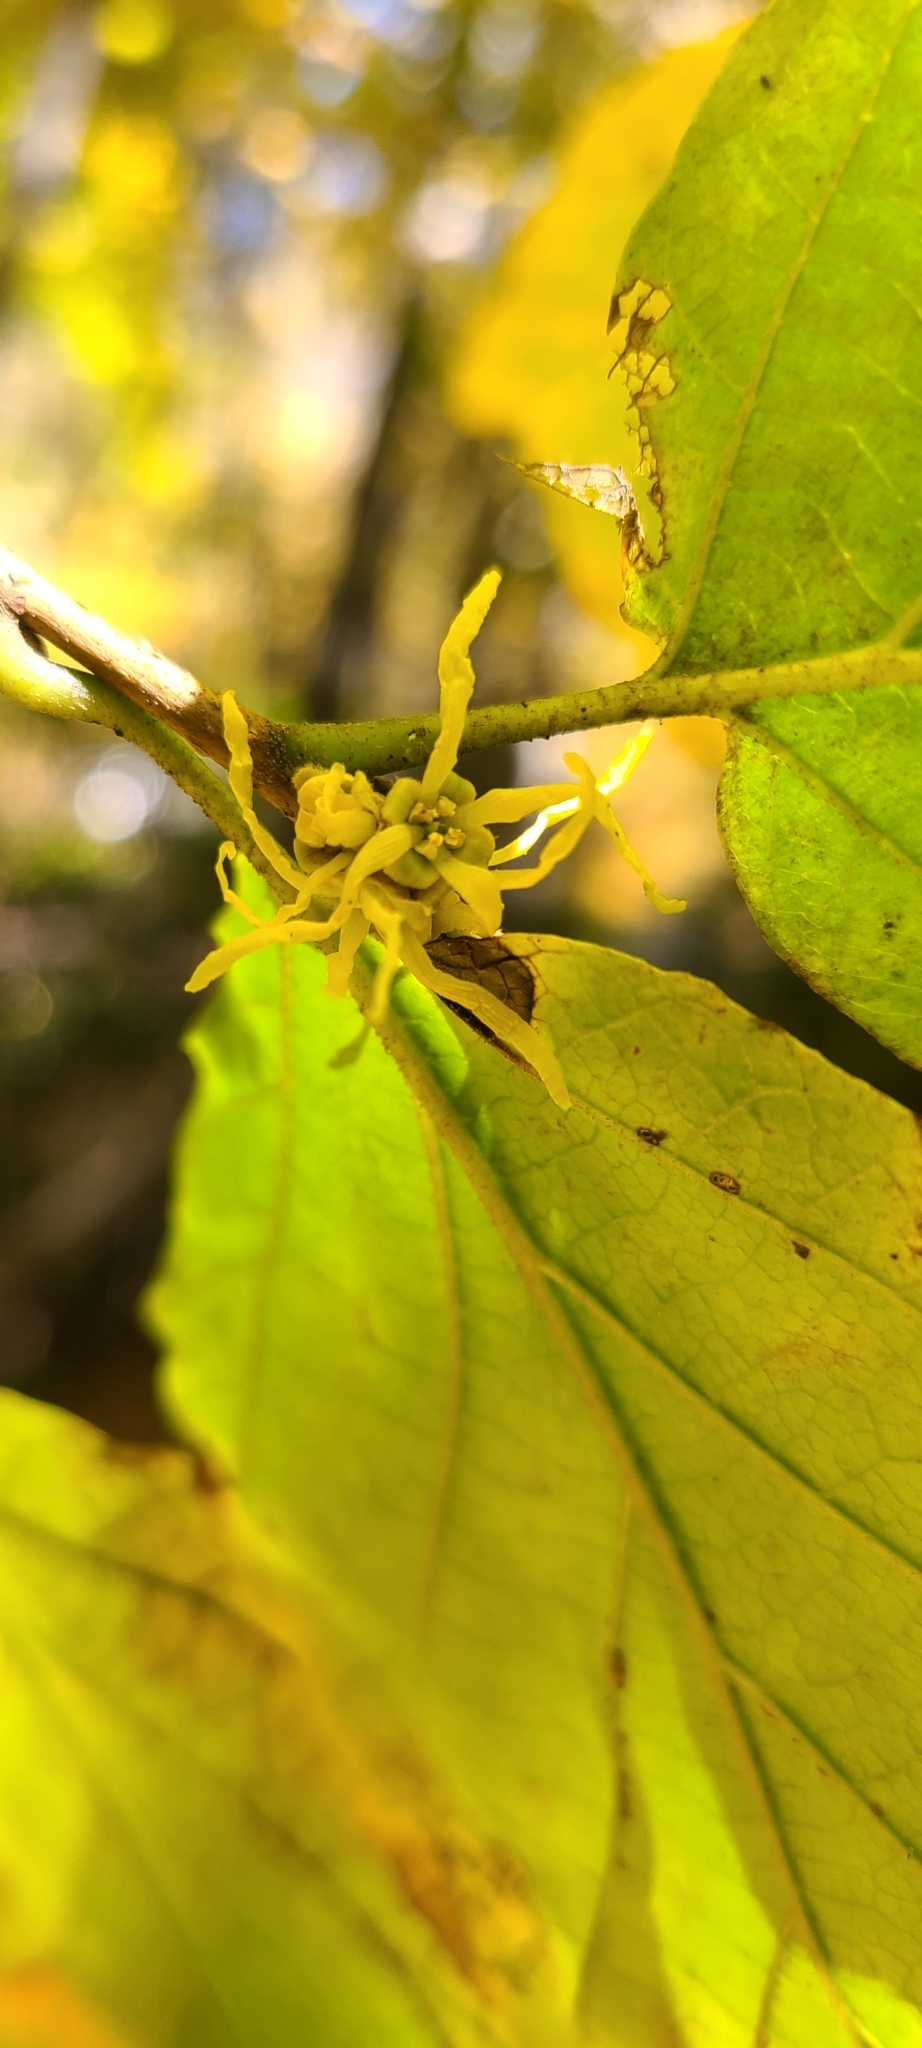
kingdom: Plantae
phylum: Tracheophyta
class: Magnoliopsida
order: Saxifragales
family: Hamamelidaceae
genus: Hamamelis
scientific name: Hamamelis virginiana
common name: Witch-hazel
